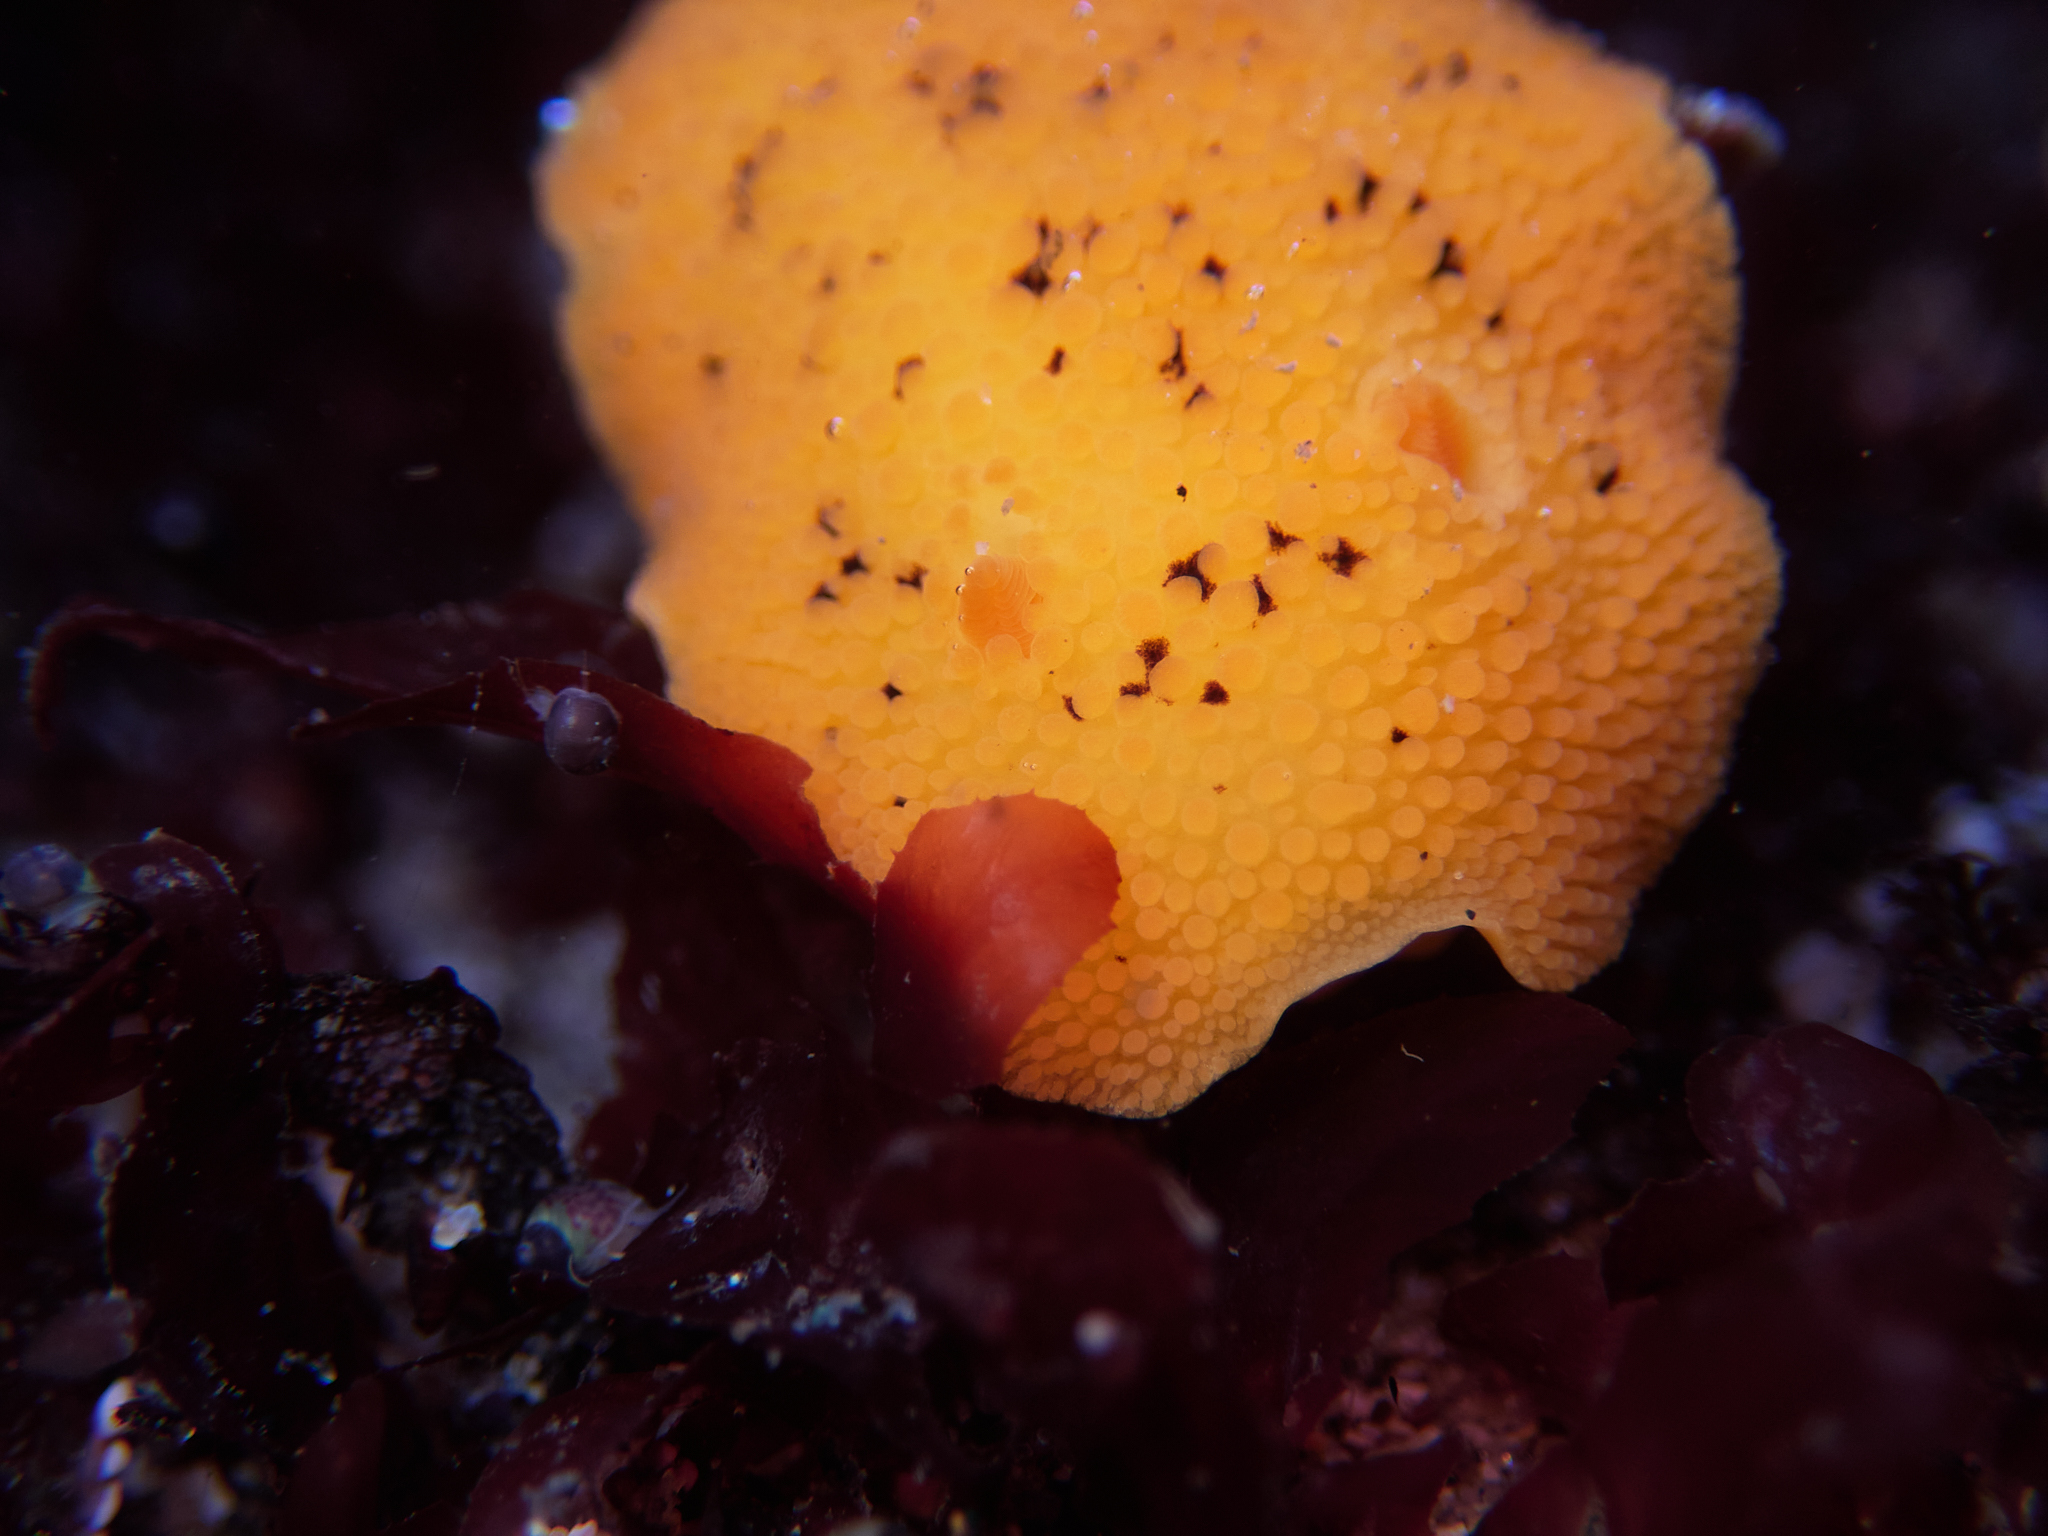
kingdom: Animalia
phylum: Mollusca
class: Gastropoda
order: Nudibranchia
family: Discodorididae
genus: Peltodoris
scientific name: Peltodoris nobilis
